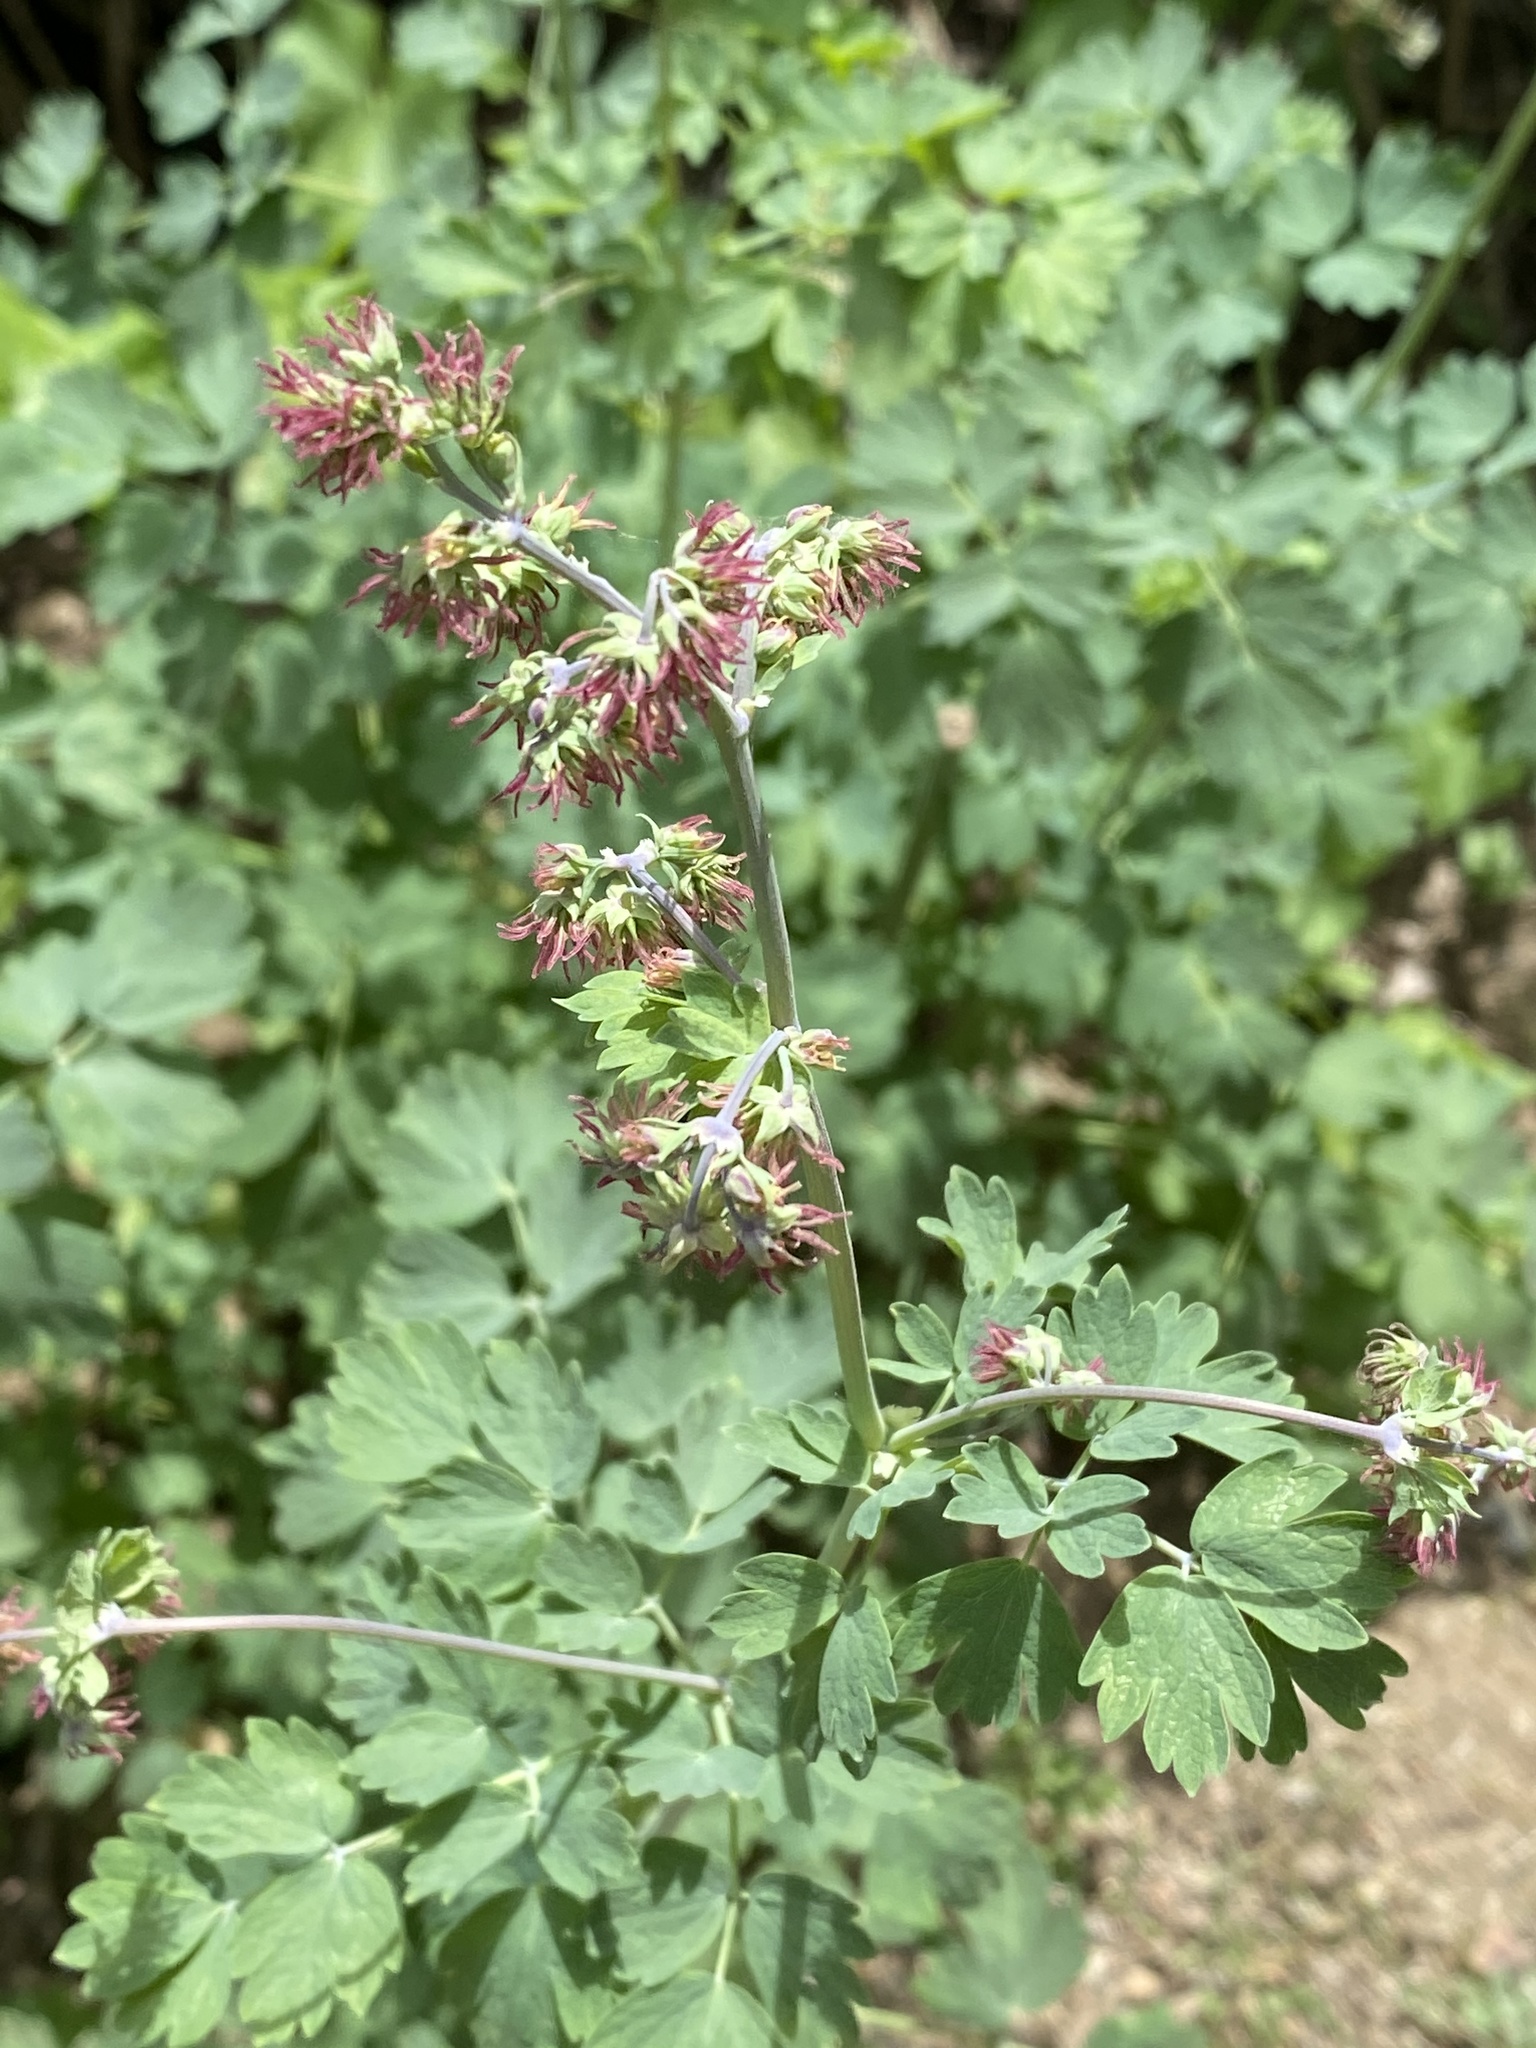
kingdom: Plantae
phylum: Tracheophyta
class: Magnoliopsida
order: Ranunculales
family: Ranunculaceae
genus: Thalictrum
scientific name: Thalictrum fendleri
